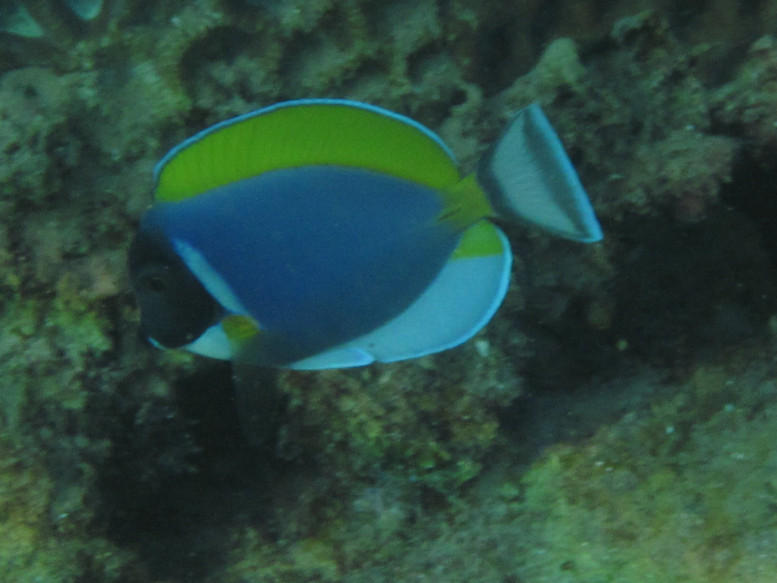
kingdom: Animalia
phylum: Chordata
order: Perciformes
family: Acanthuridae
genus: Acanthurus
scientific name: Acanthurus leucosternon
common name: Blue surgeonfish
